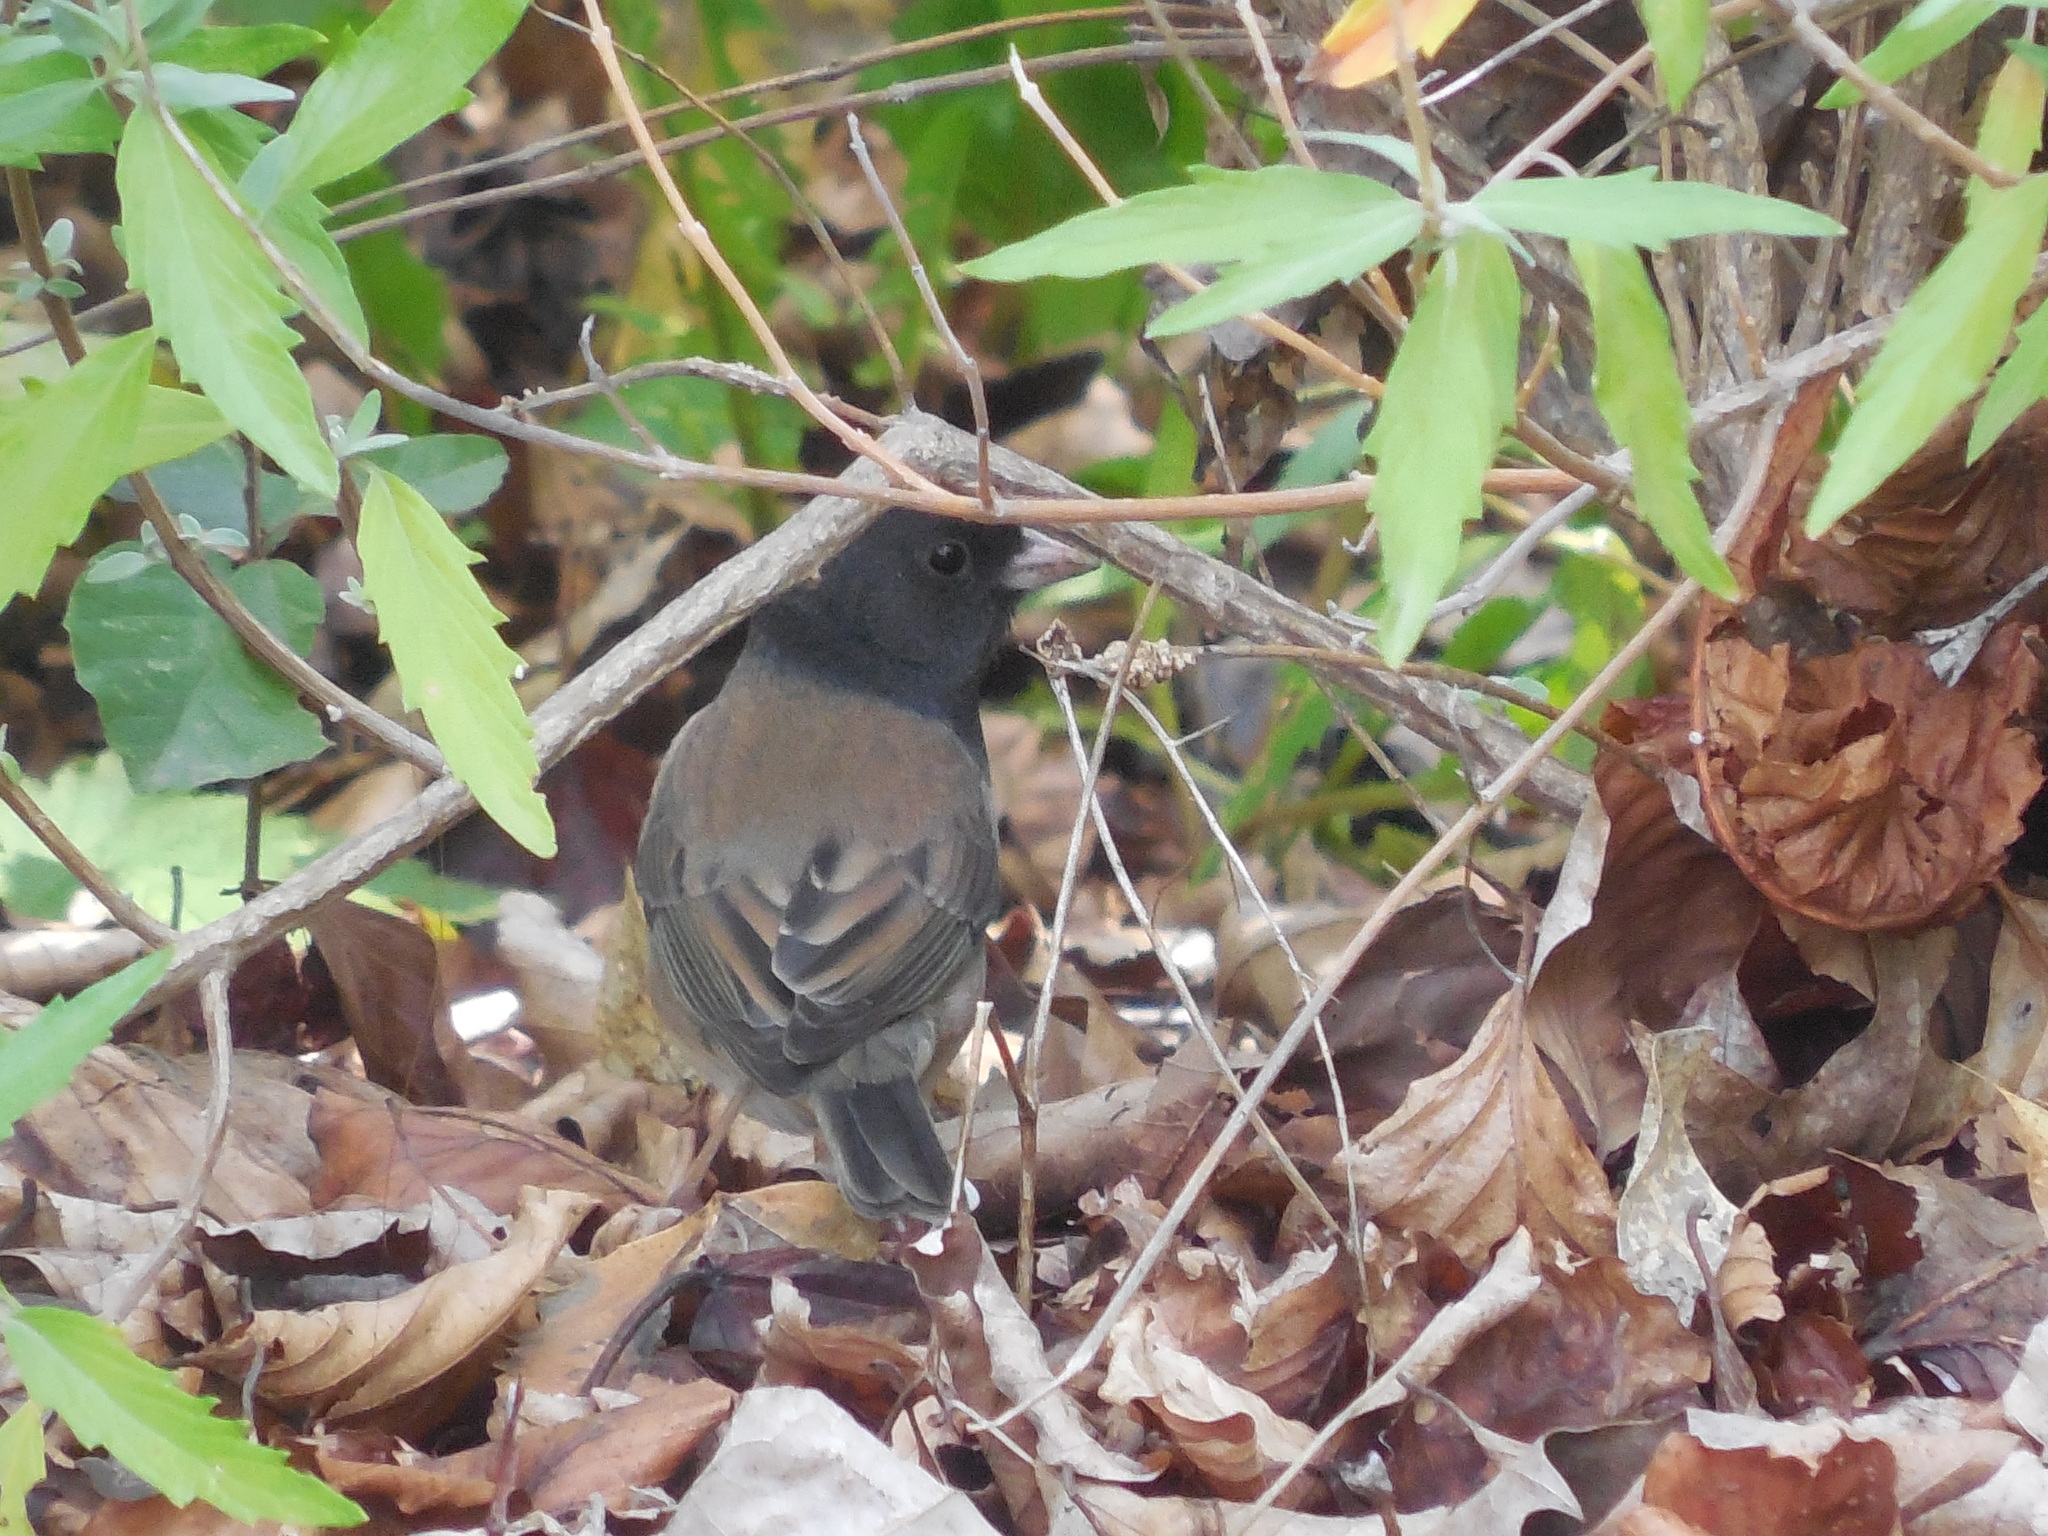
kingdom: Animalia
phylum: Chordata
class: Aves
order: Passeriformes
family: Passerellidae
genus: Junco
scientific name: Junco hyemalis
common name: Dark-eyed junco
